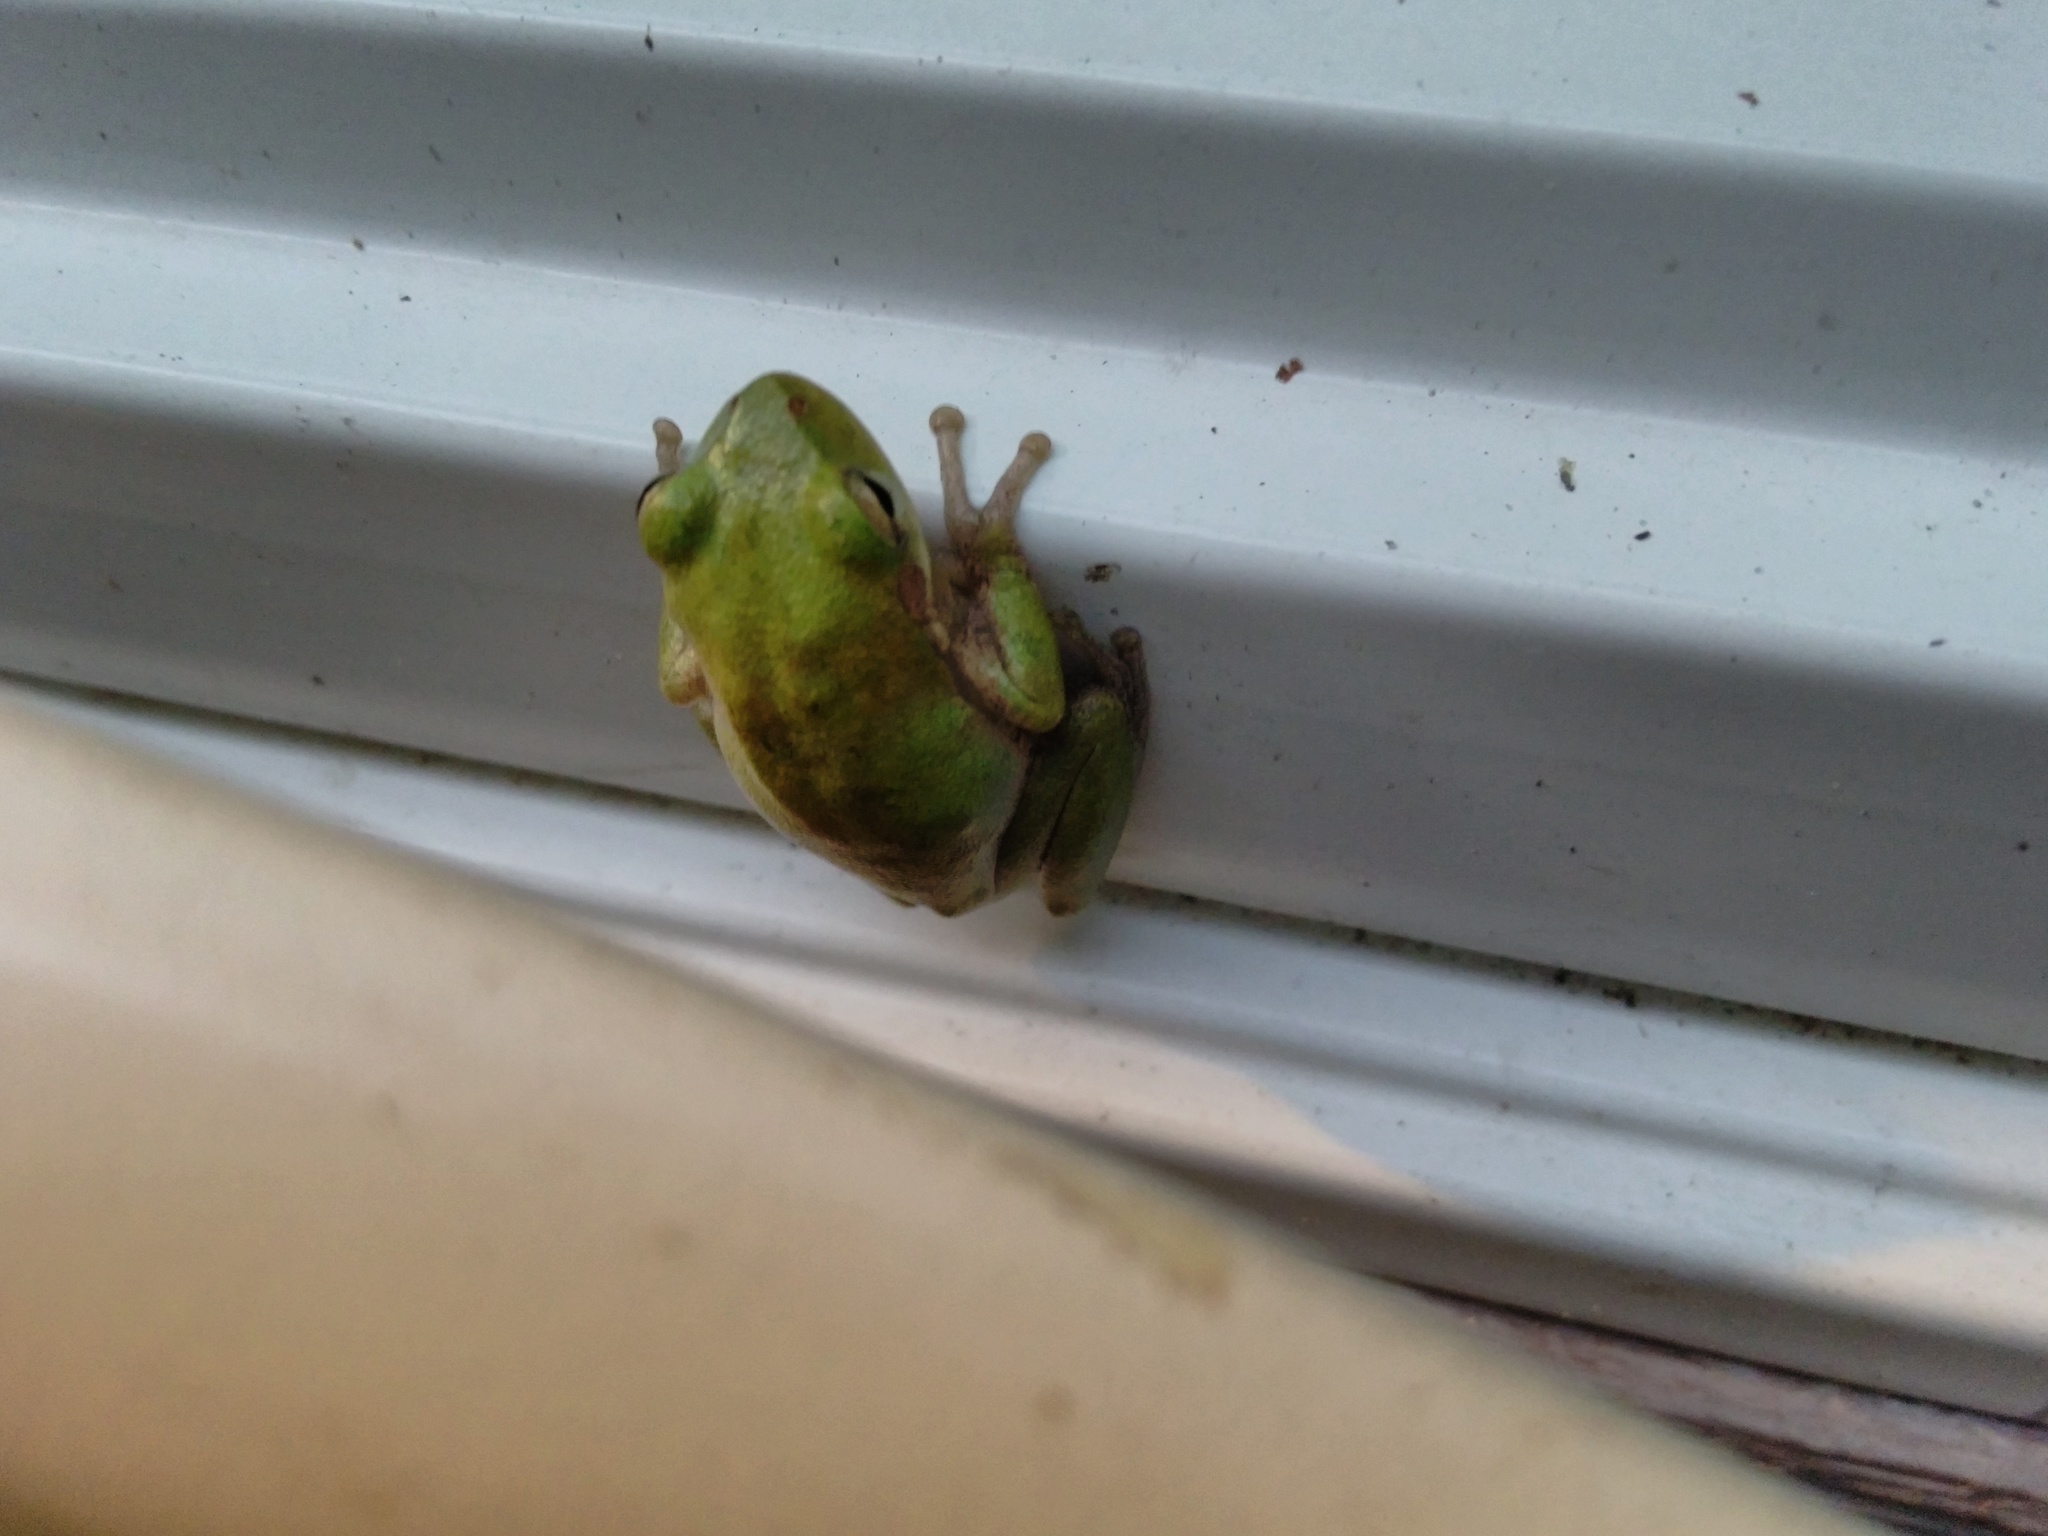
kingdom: Animalia
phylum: Chordata
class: Amphibia
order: Anura
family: Hylidae
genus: Dryophytes
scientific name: Dryophytes cinereus
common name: Green treefrog
